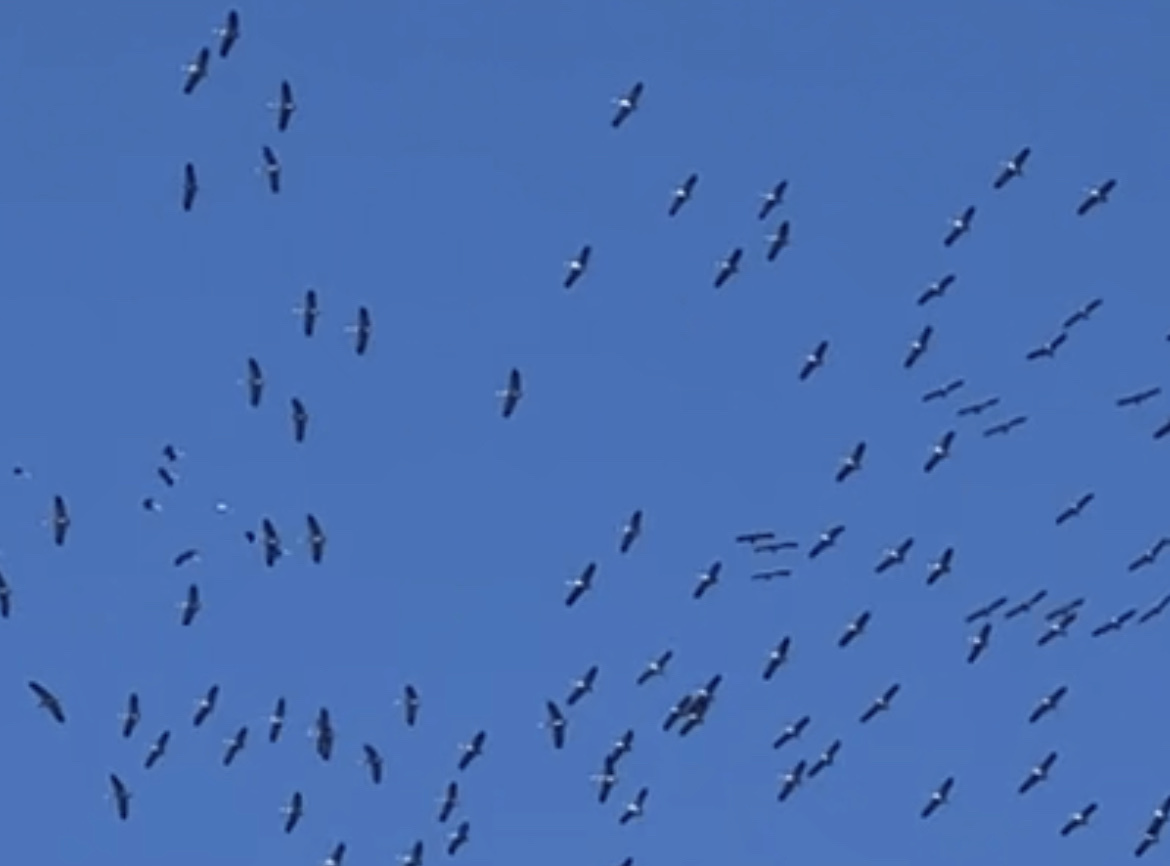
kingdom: Animalia
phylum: Chordata
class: Aves
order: Gruiformes
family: Gruidae
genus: Grus
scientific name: Grus grus
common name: Common crane
